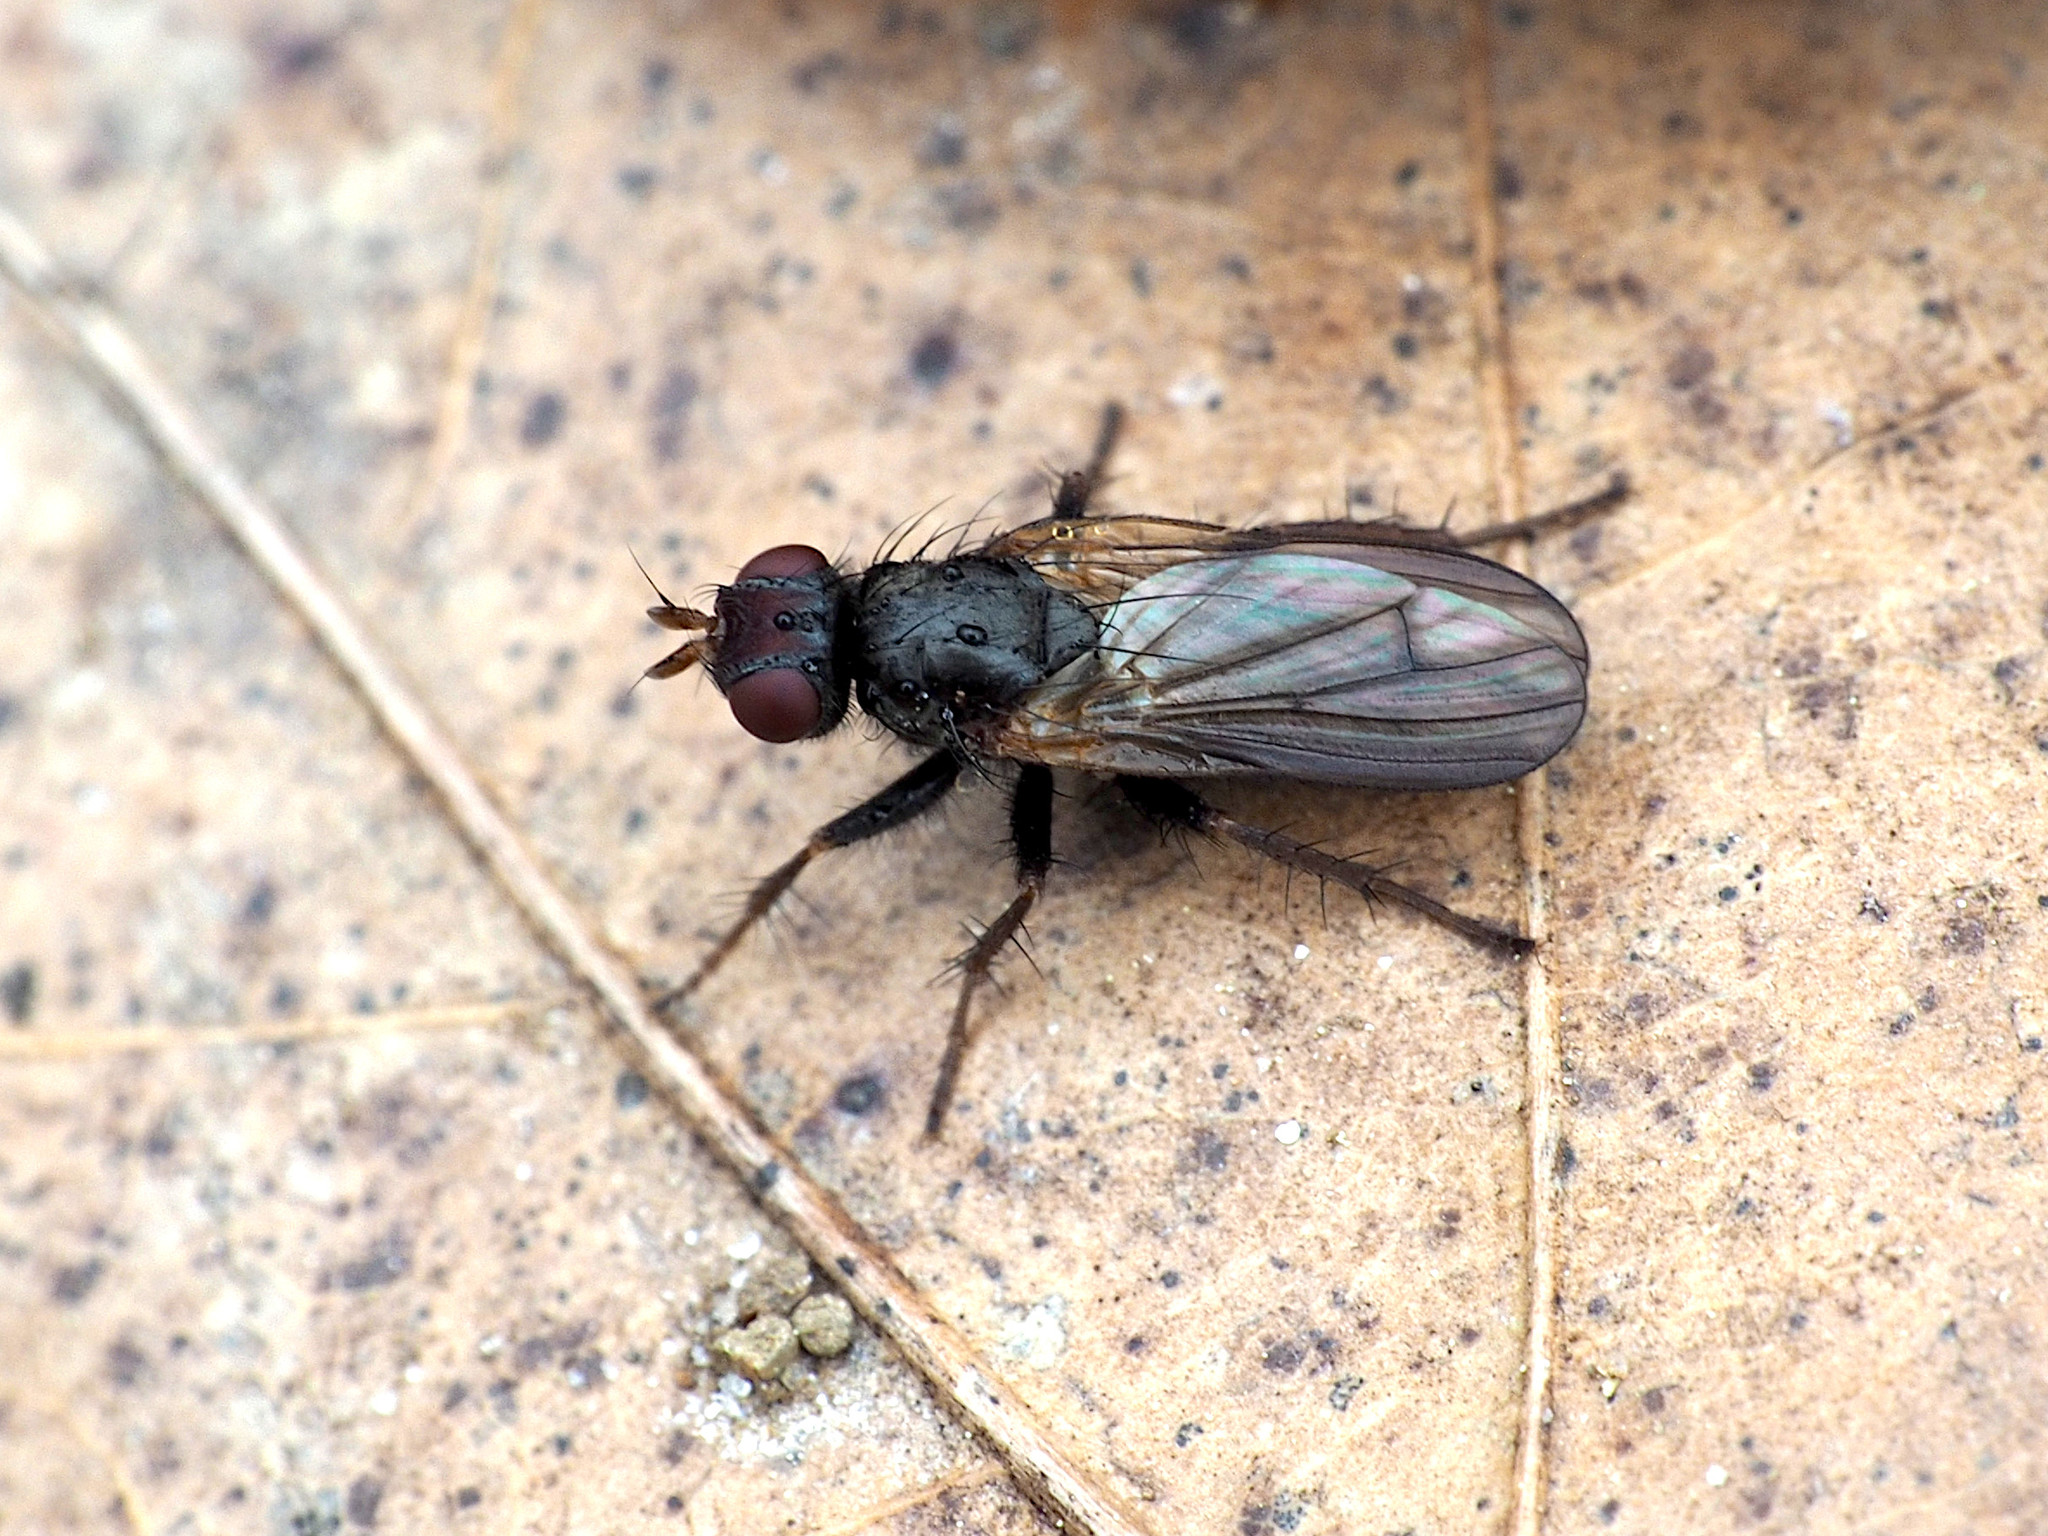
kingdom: Animalia
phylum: Arthropoda
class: Insecta
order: Diptera
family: Scathophagidae
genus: Bucephalina
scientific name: Bucephalina megacephala
